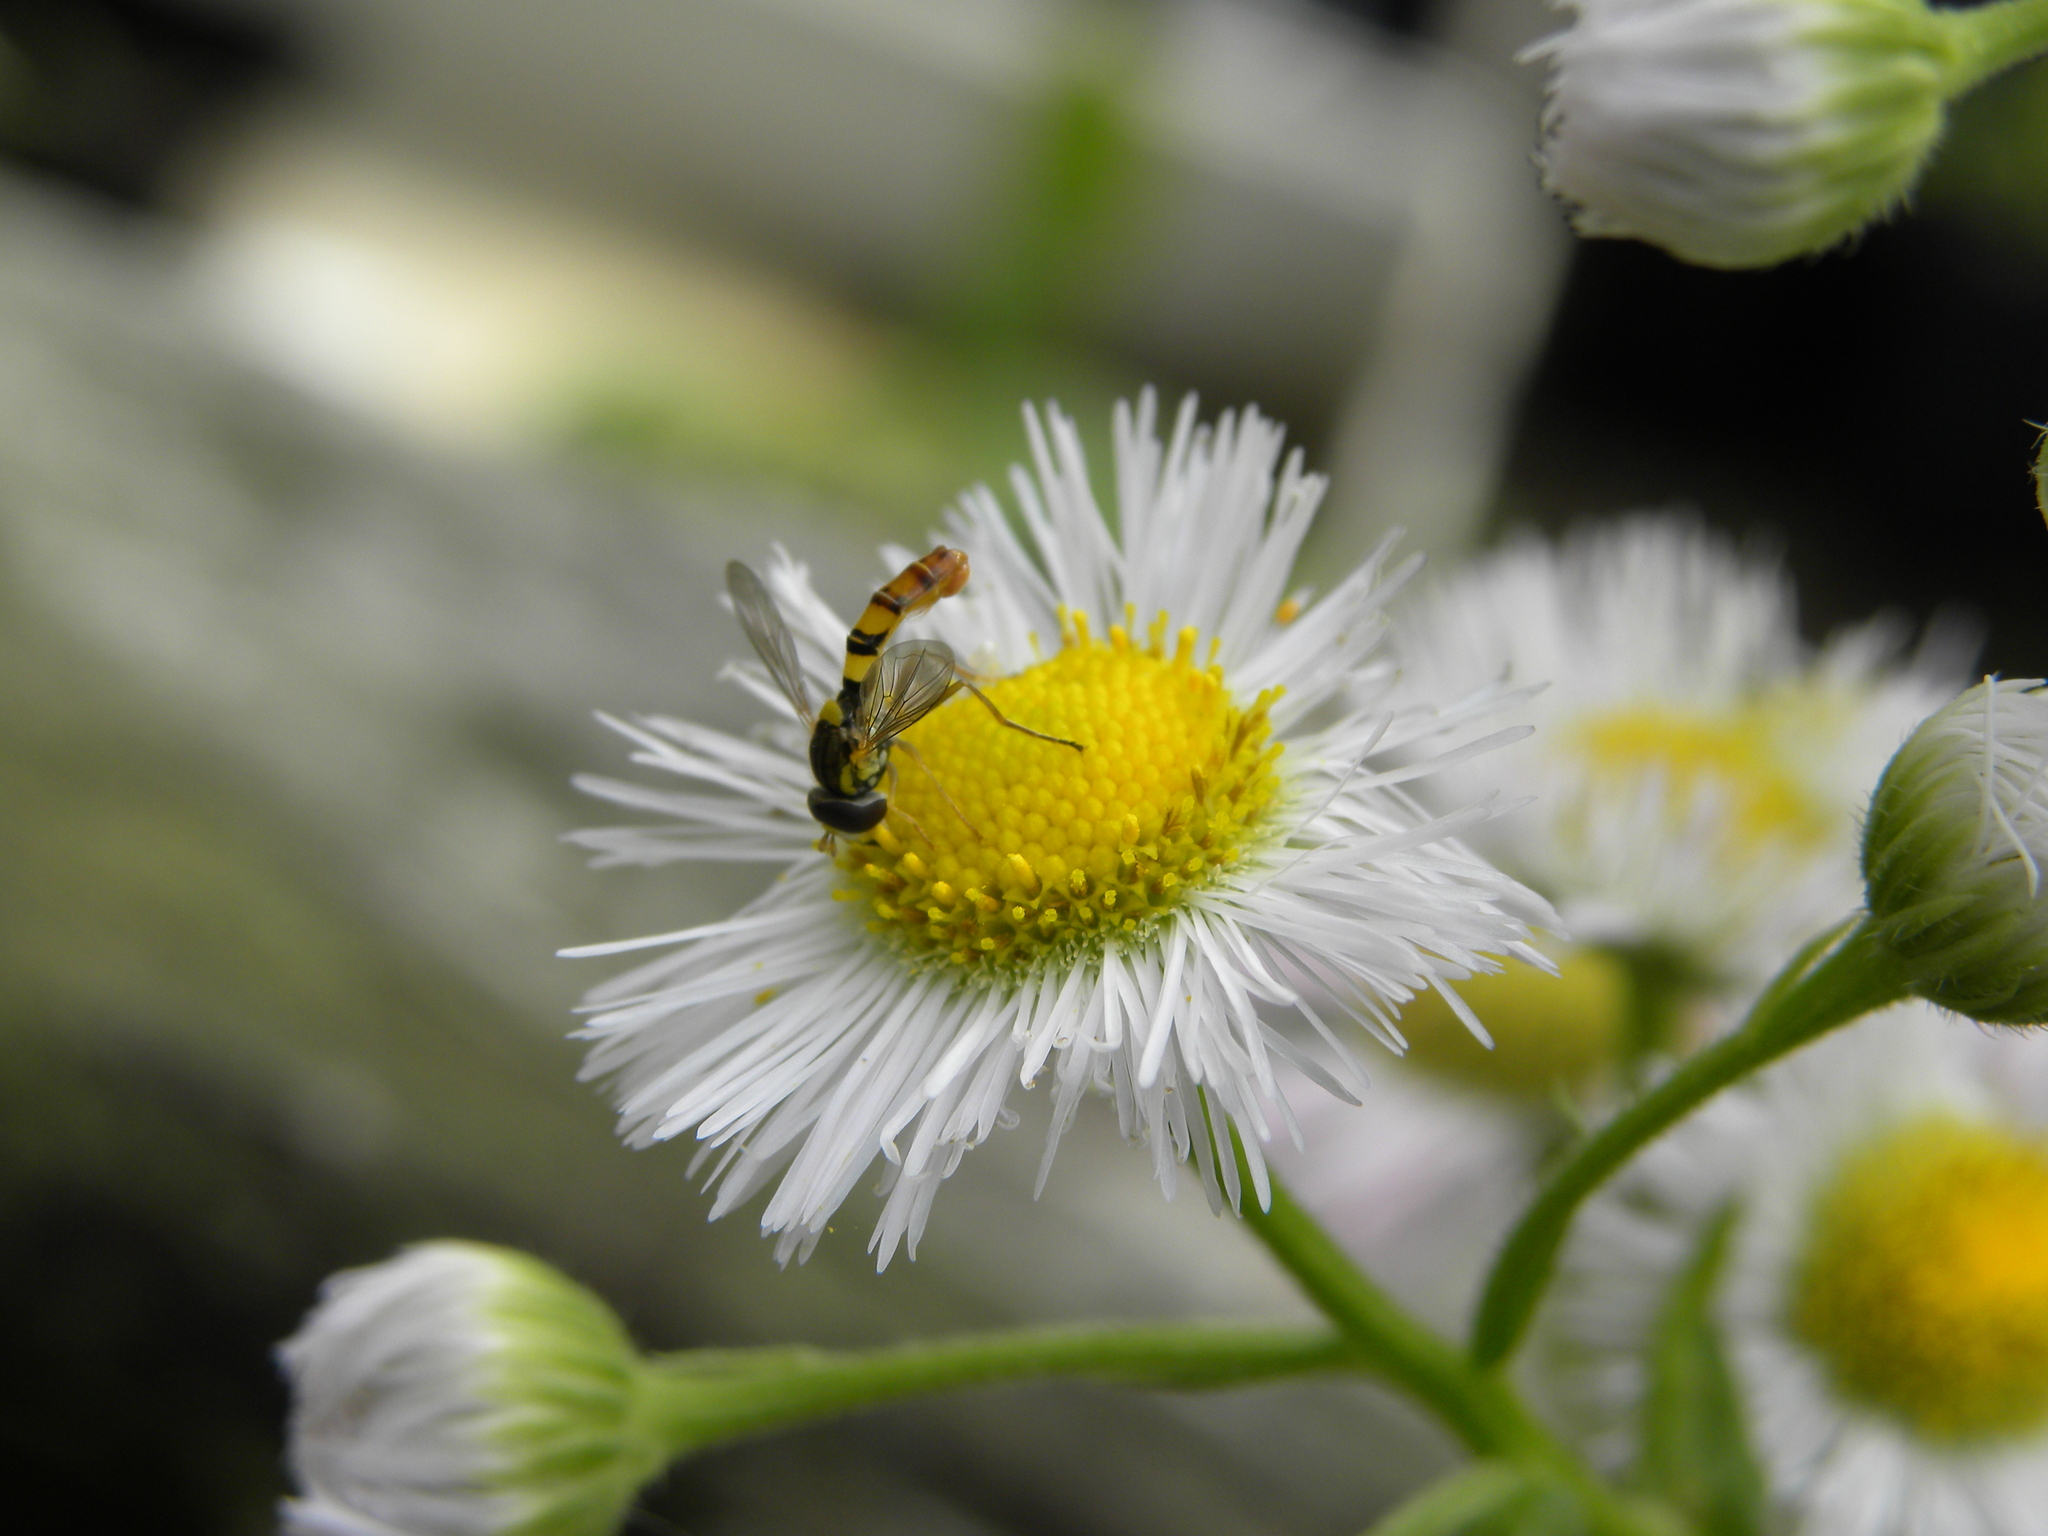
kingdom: Animalia
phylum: Arthropoda
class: Insecta
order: Diptera
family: Syrphidae
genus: Sphaerophoria
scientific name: Sphaerophoria contigua
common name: Tufted globetail
